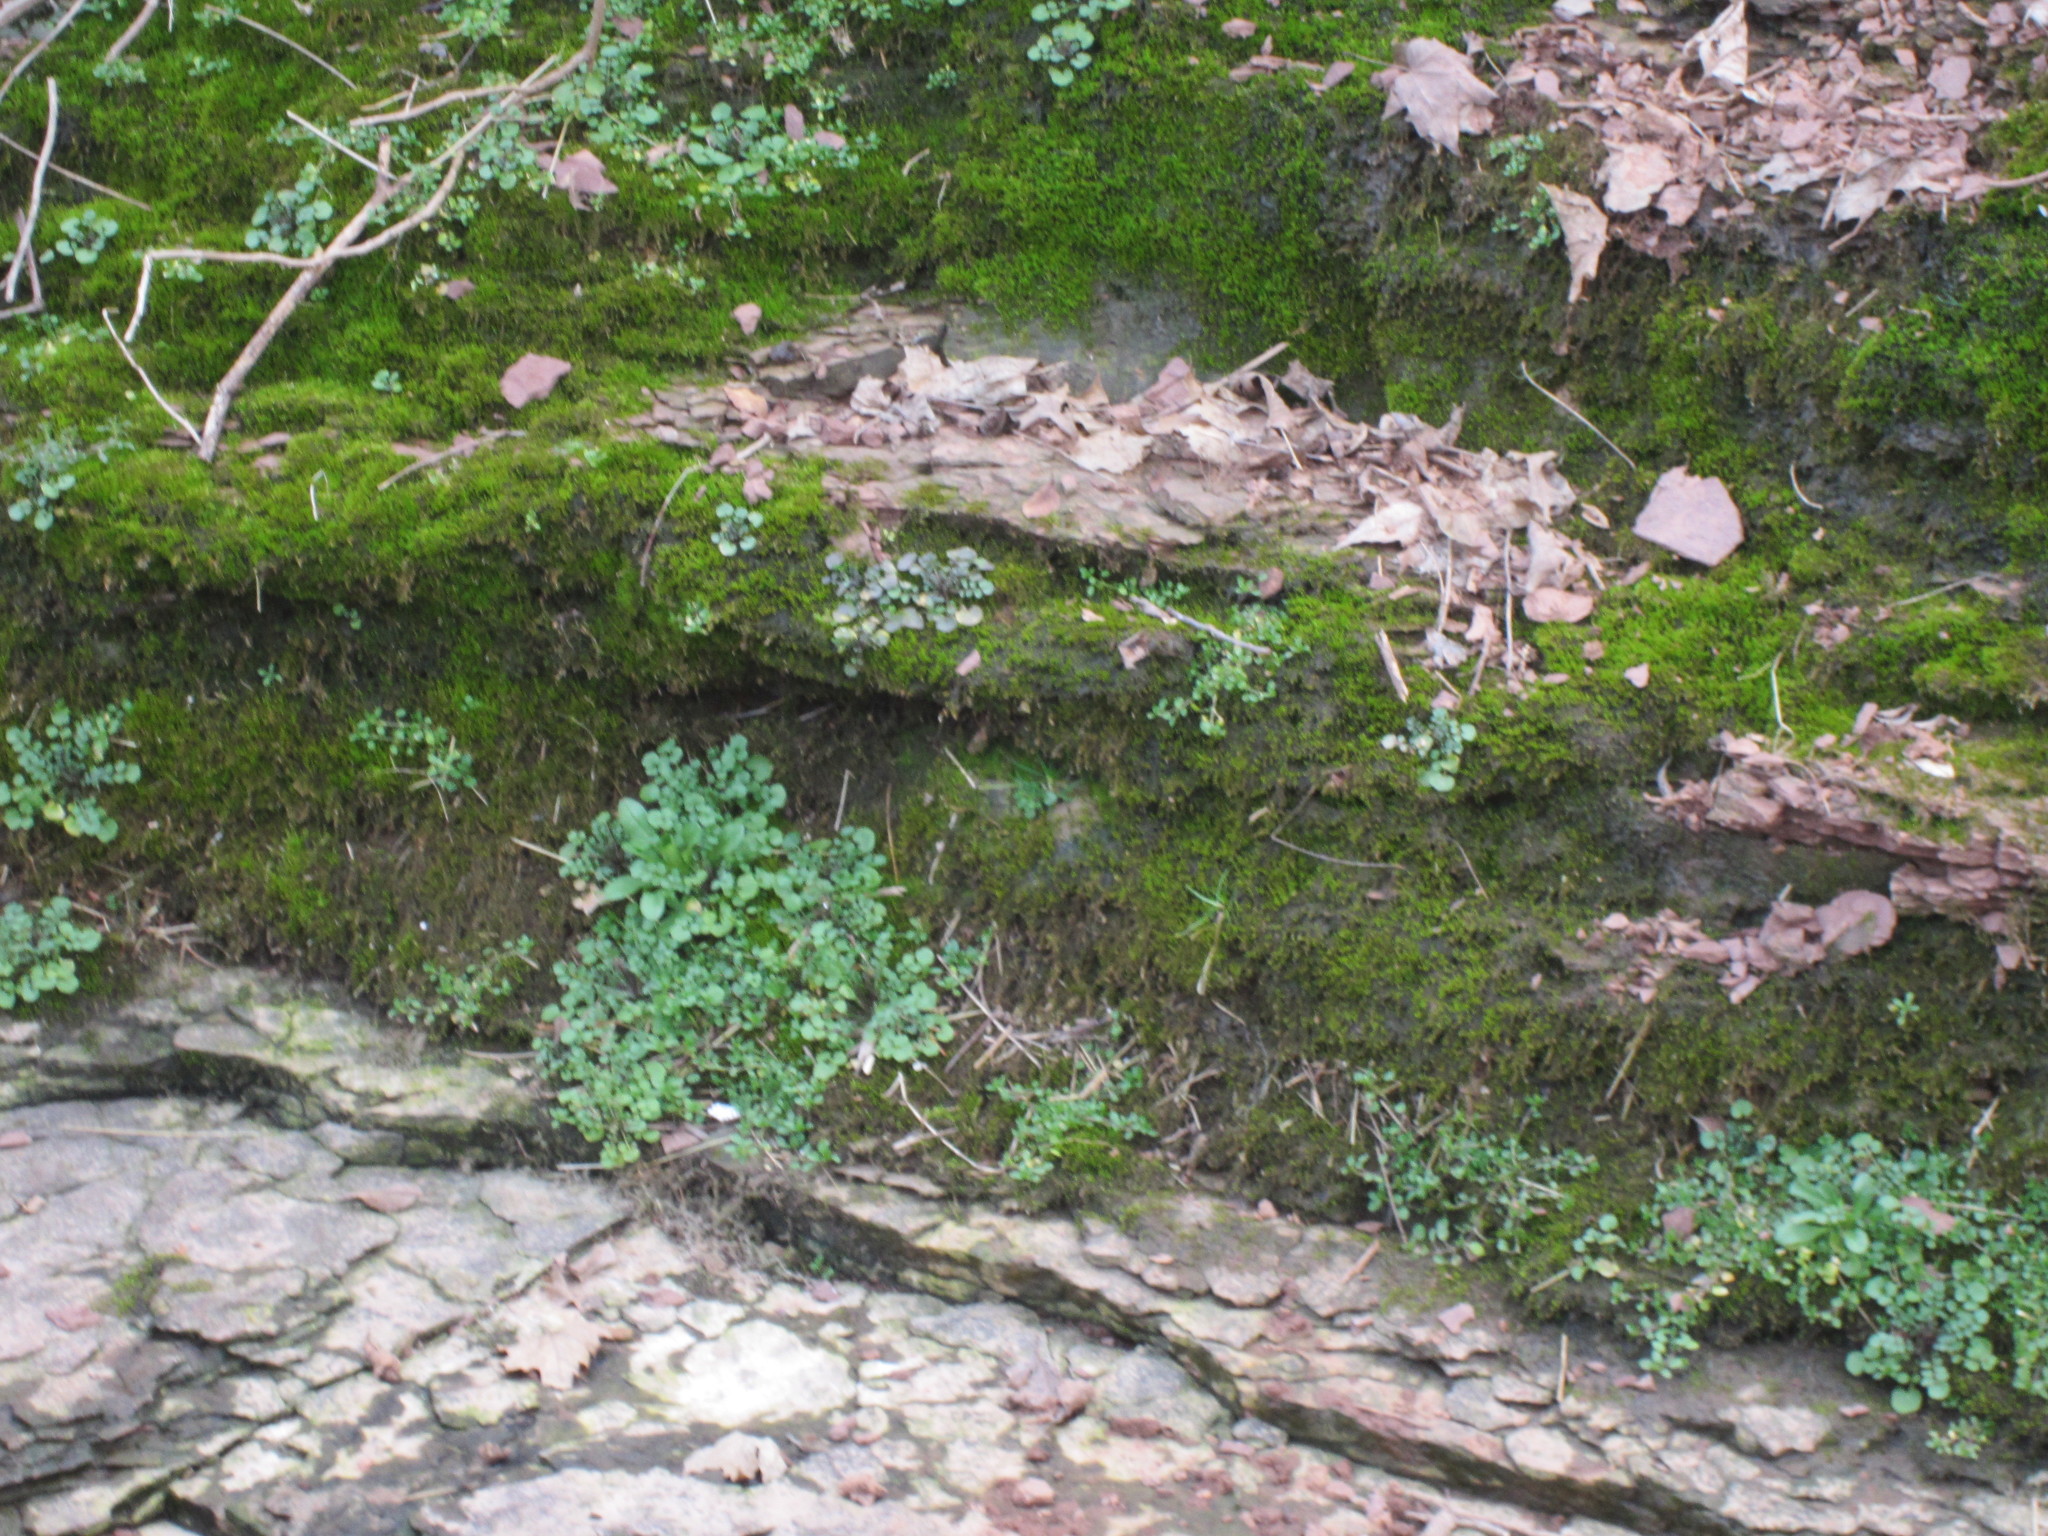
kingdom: Plantae
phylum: Tracheophyta
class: Magnoliopsida
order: Brassicales
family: Brassicaceae
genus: Cardamine
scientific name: Cardamine hirsuta
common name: Hairy bittercress
